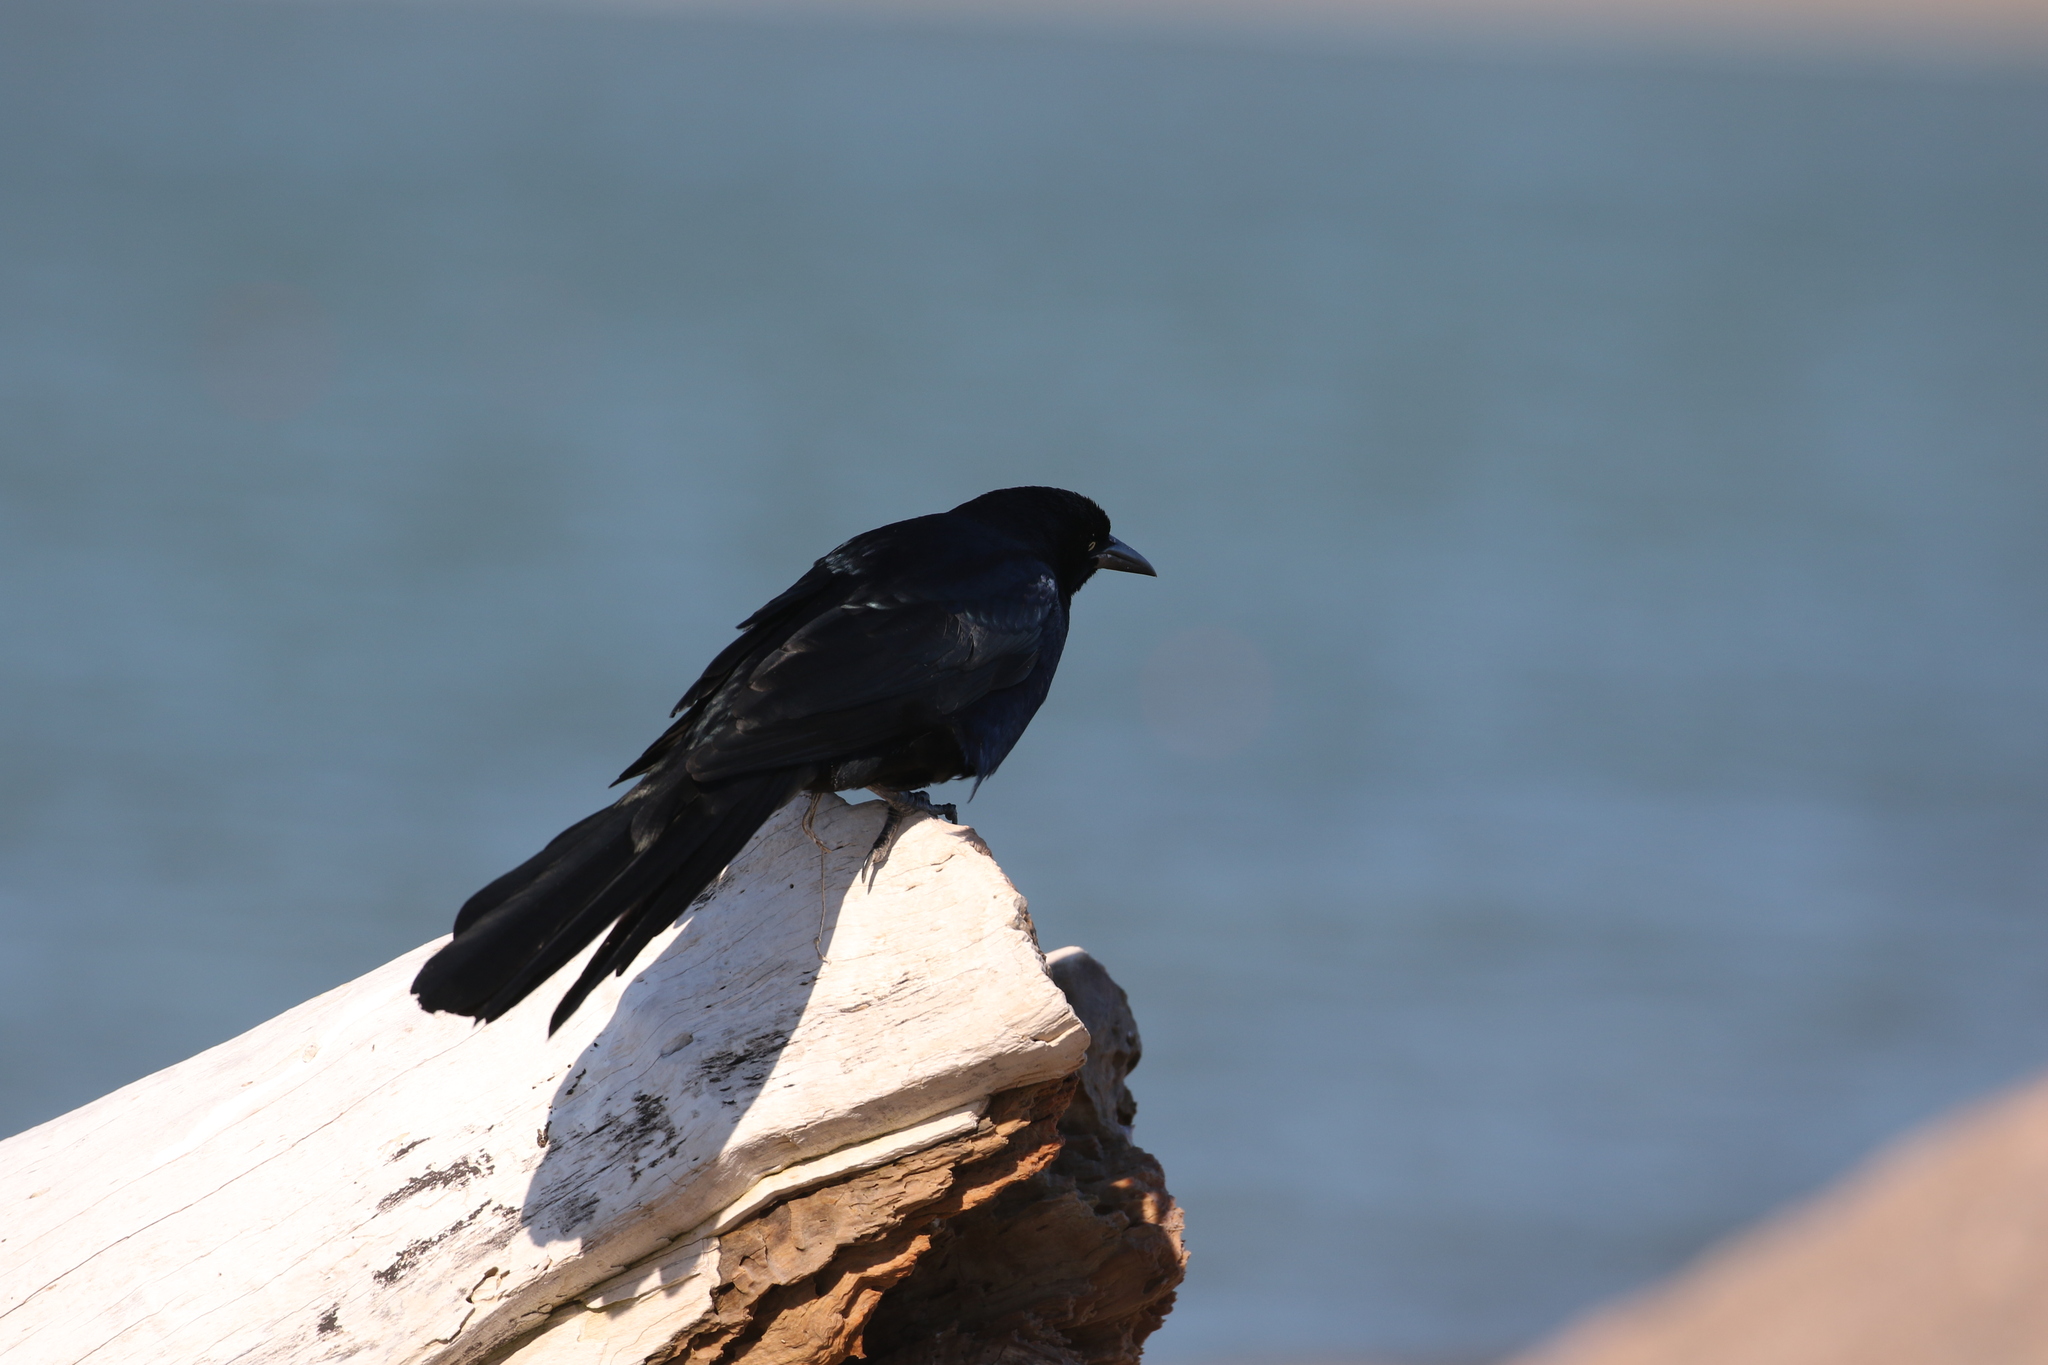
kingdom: Animalia
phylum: Chordata
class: Aves
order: Passeriformes
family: Icteridae
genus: Quiscalus
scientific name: Quiscalus mexicanus
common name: Great-tailed grackle
